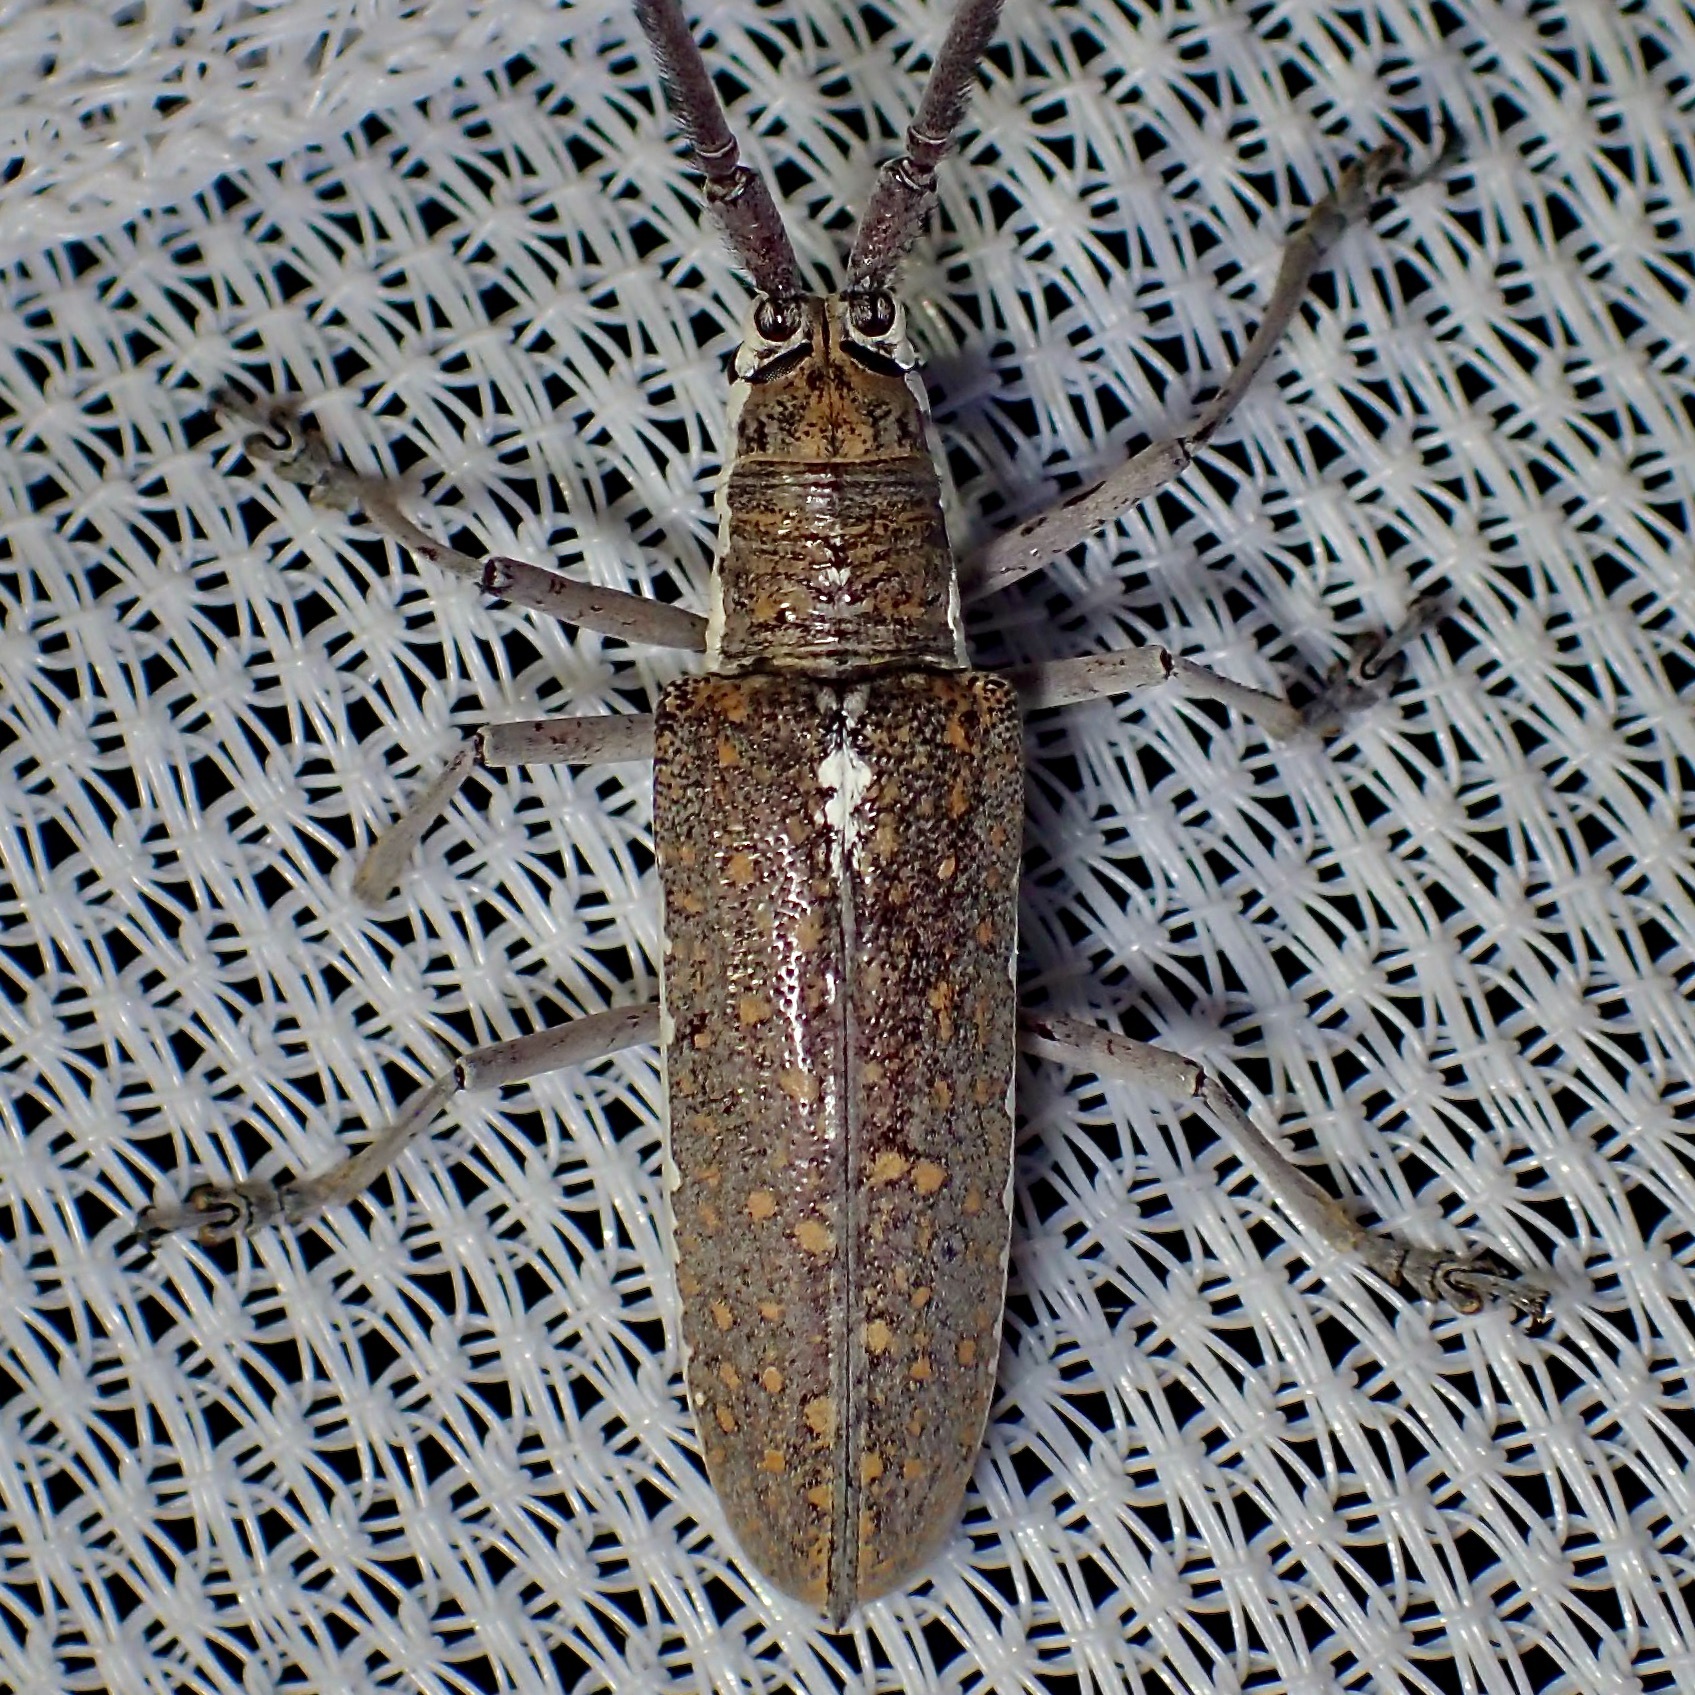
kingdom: Animalia
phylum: Arthropoda
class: Insecta
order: Coleoptera
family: Cerambycidae
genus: Neoptychodes
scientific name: Neoptychodes trilineatus
